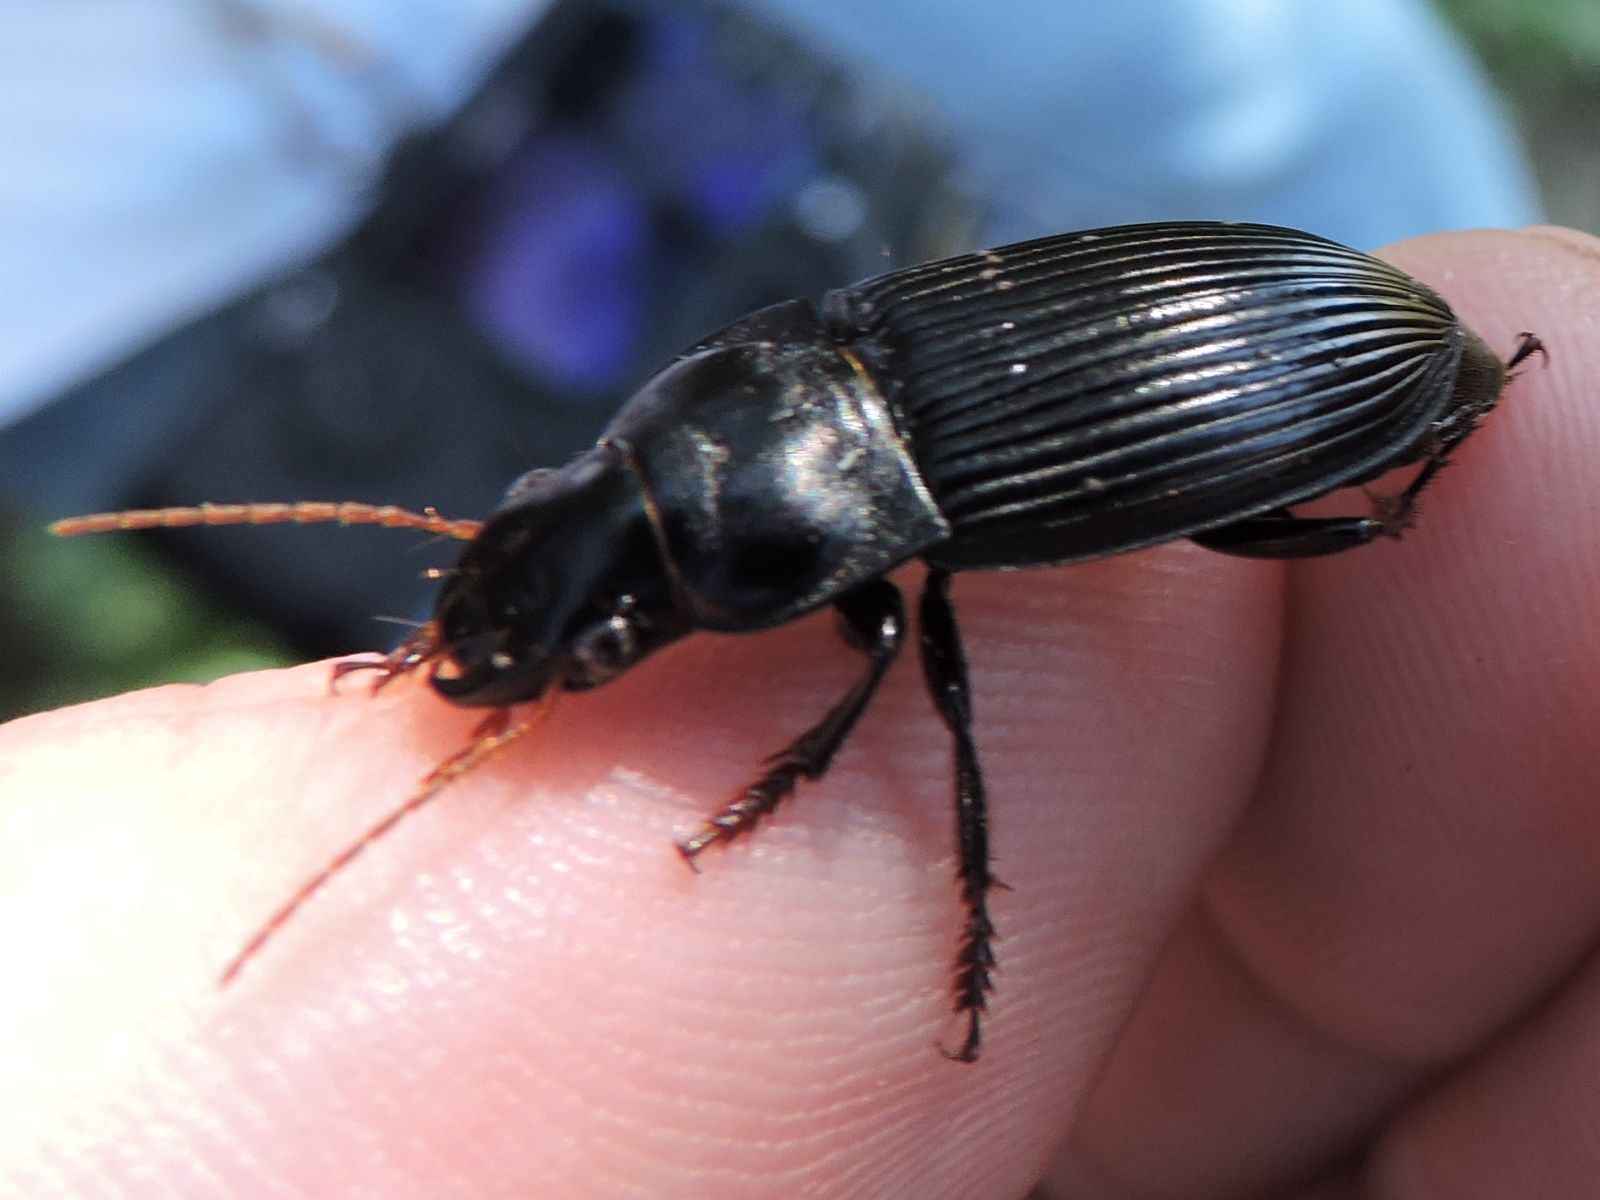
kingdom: Animalia
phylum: Arthropoda
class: Insecta
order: Coleoptera
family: Carabidae
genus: Harpalus
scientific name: Harpalus
